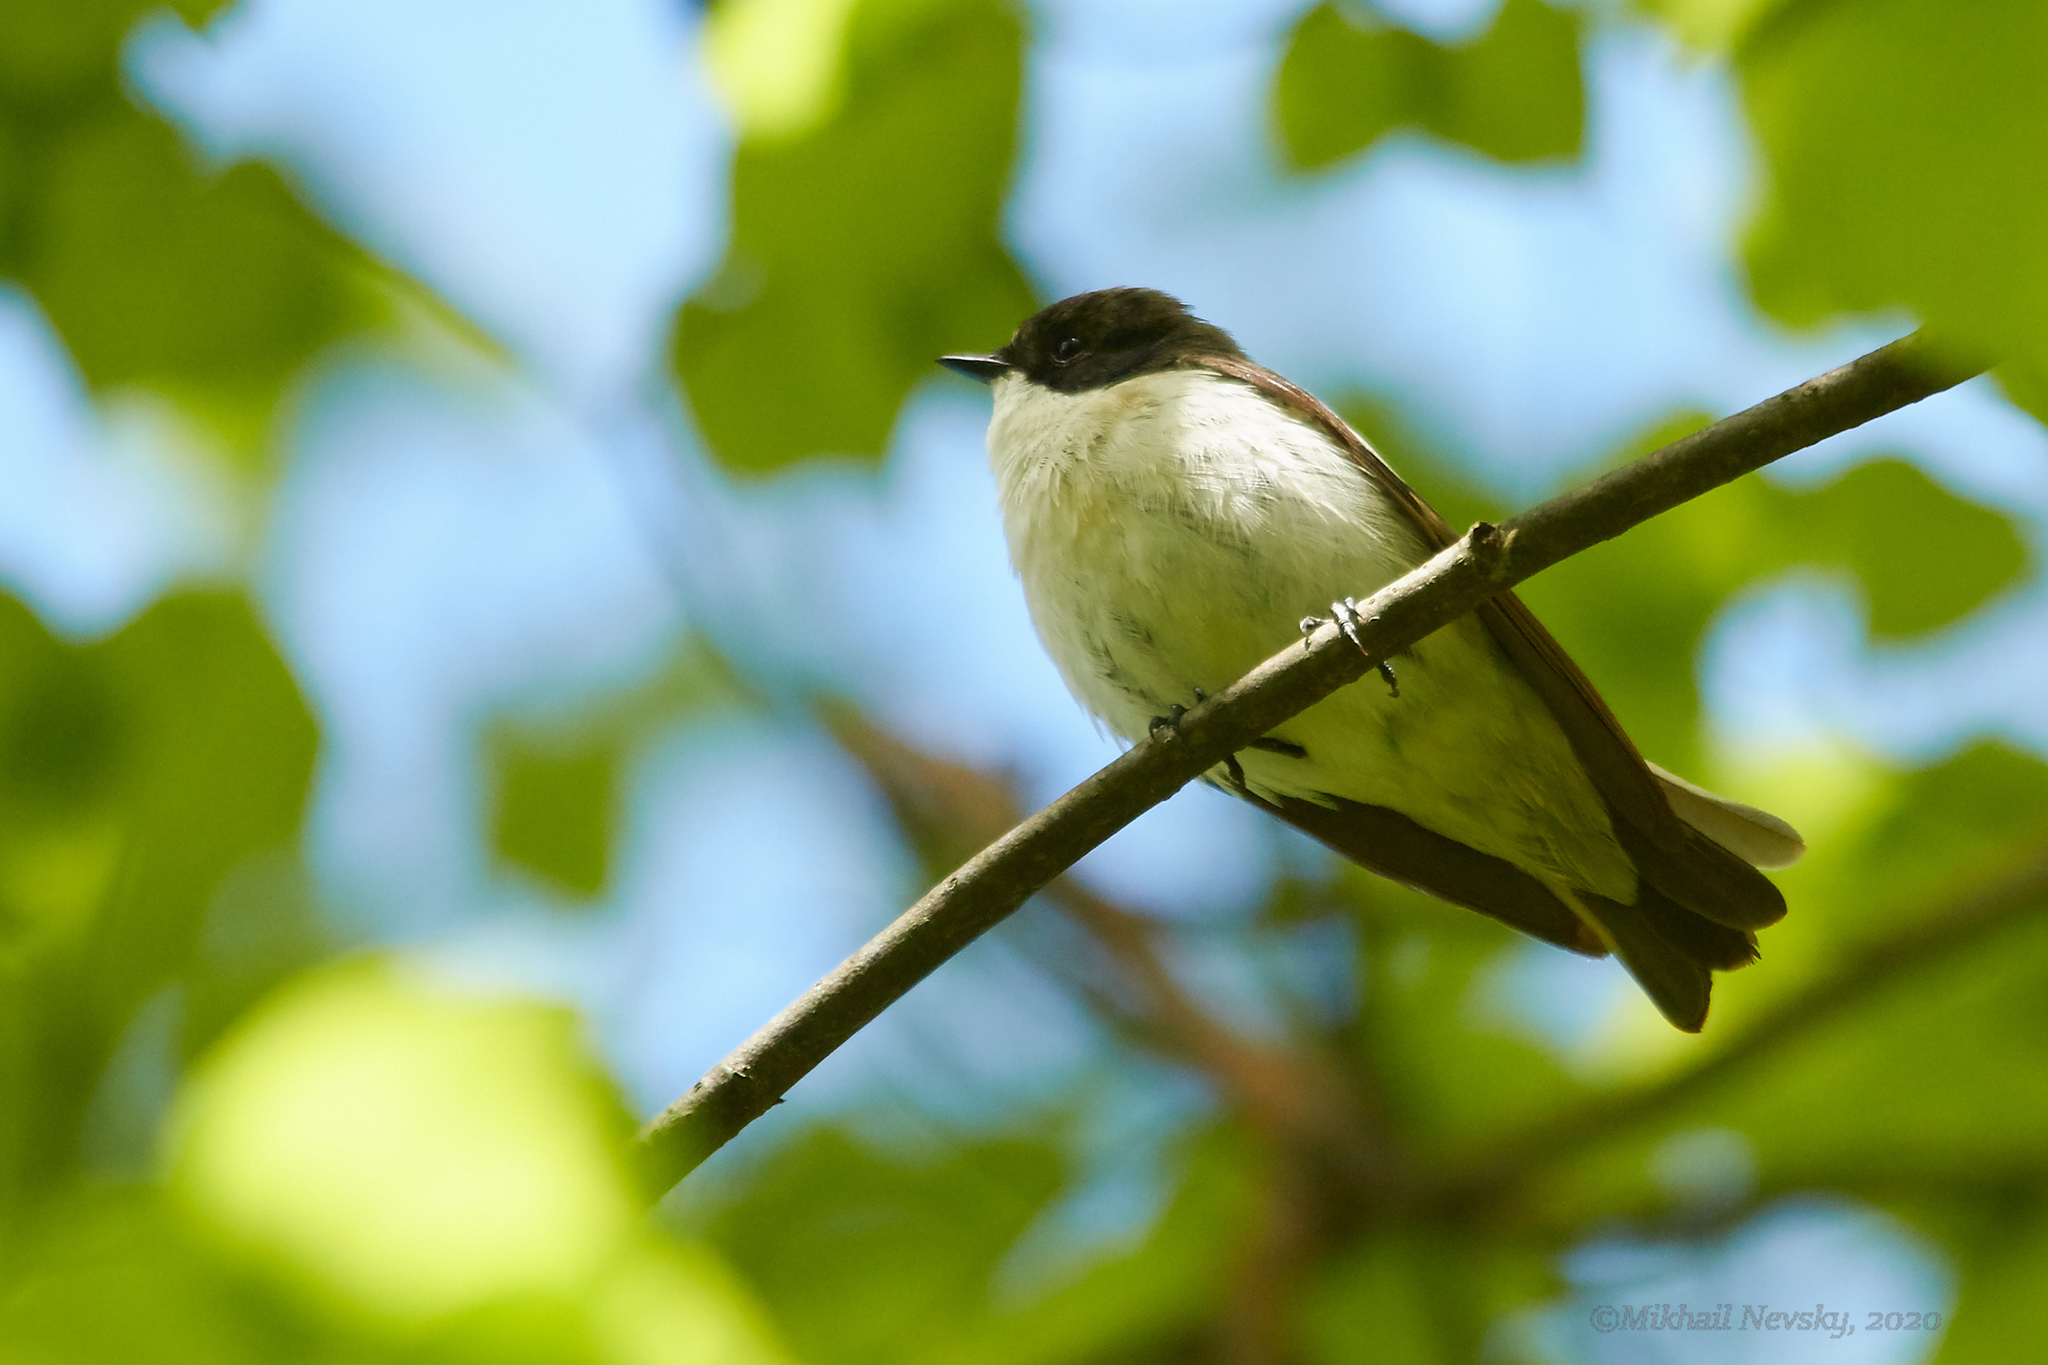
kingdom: Animalia
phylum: Chordata
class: Aves
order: Passeriformes
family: Muscicapidae
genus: Ficedula
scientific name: Ficedula hypoleuca
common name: European pied flycatcher
